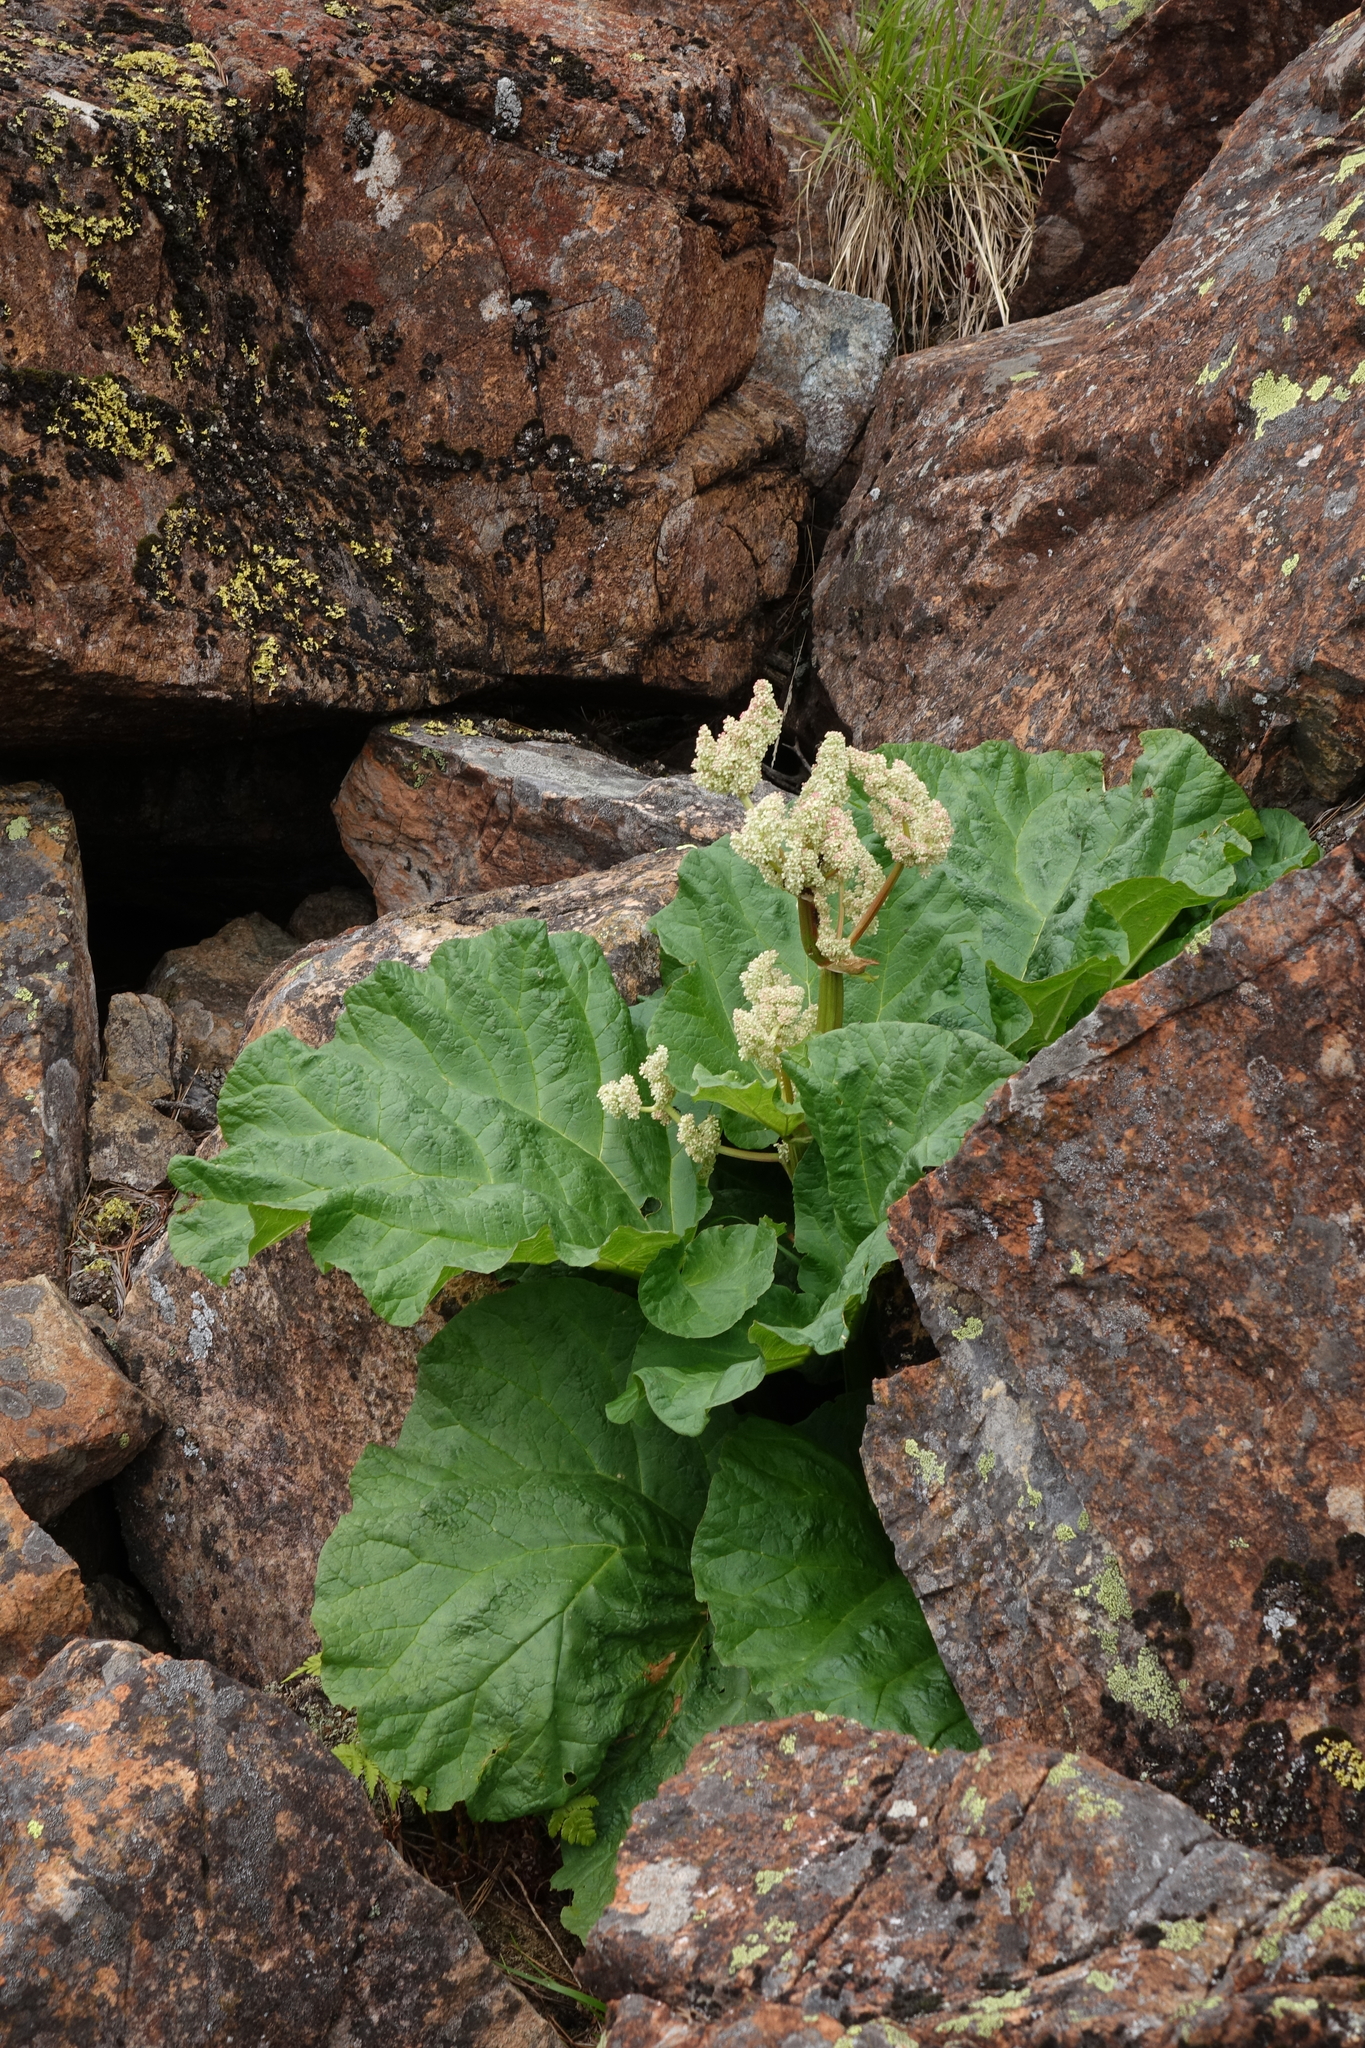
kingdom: Plantae
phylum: Tracheophyta
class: Magnoliopsida
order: Caryophyllales
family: Polygonaceae
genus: Rheum
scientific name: Rheum compactum
